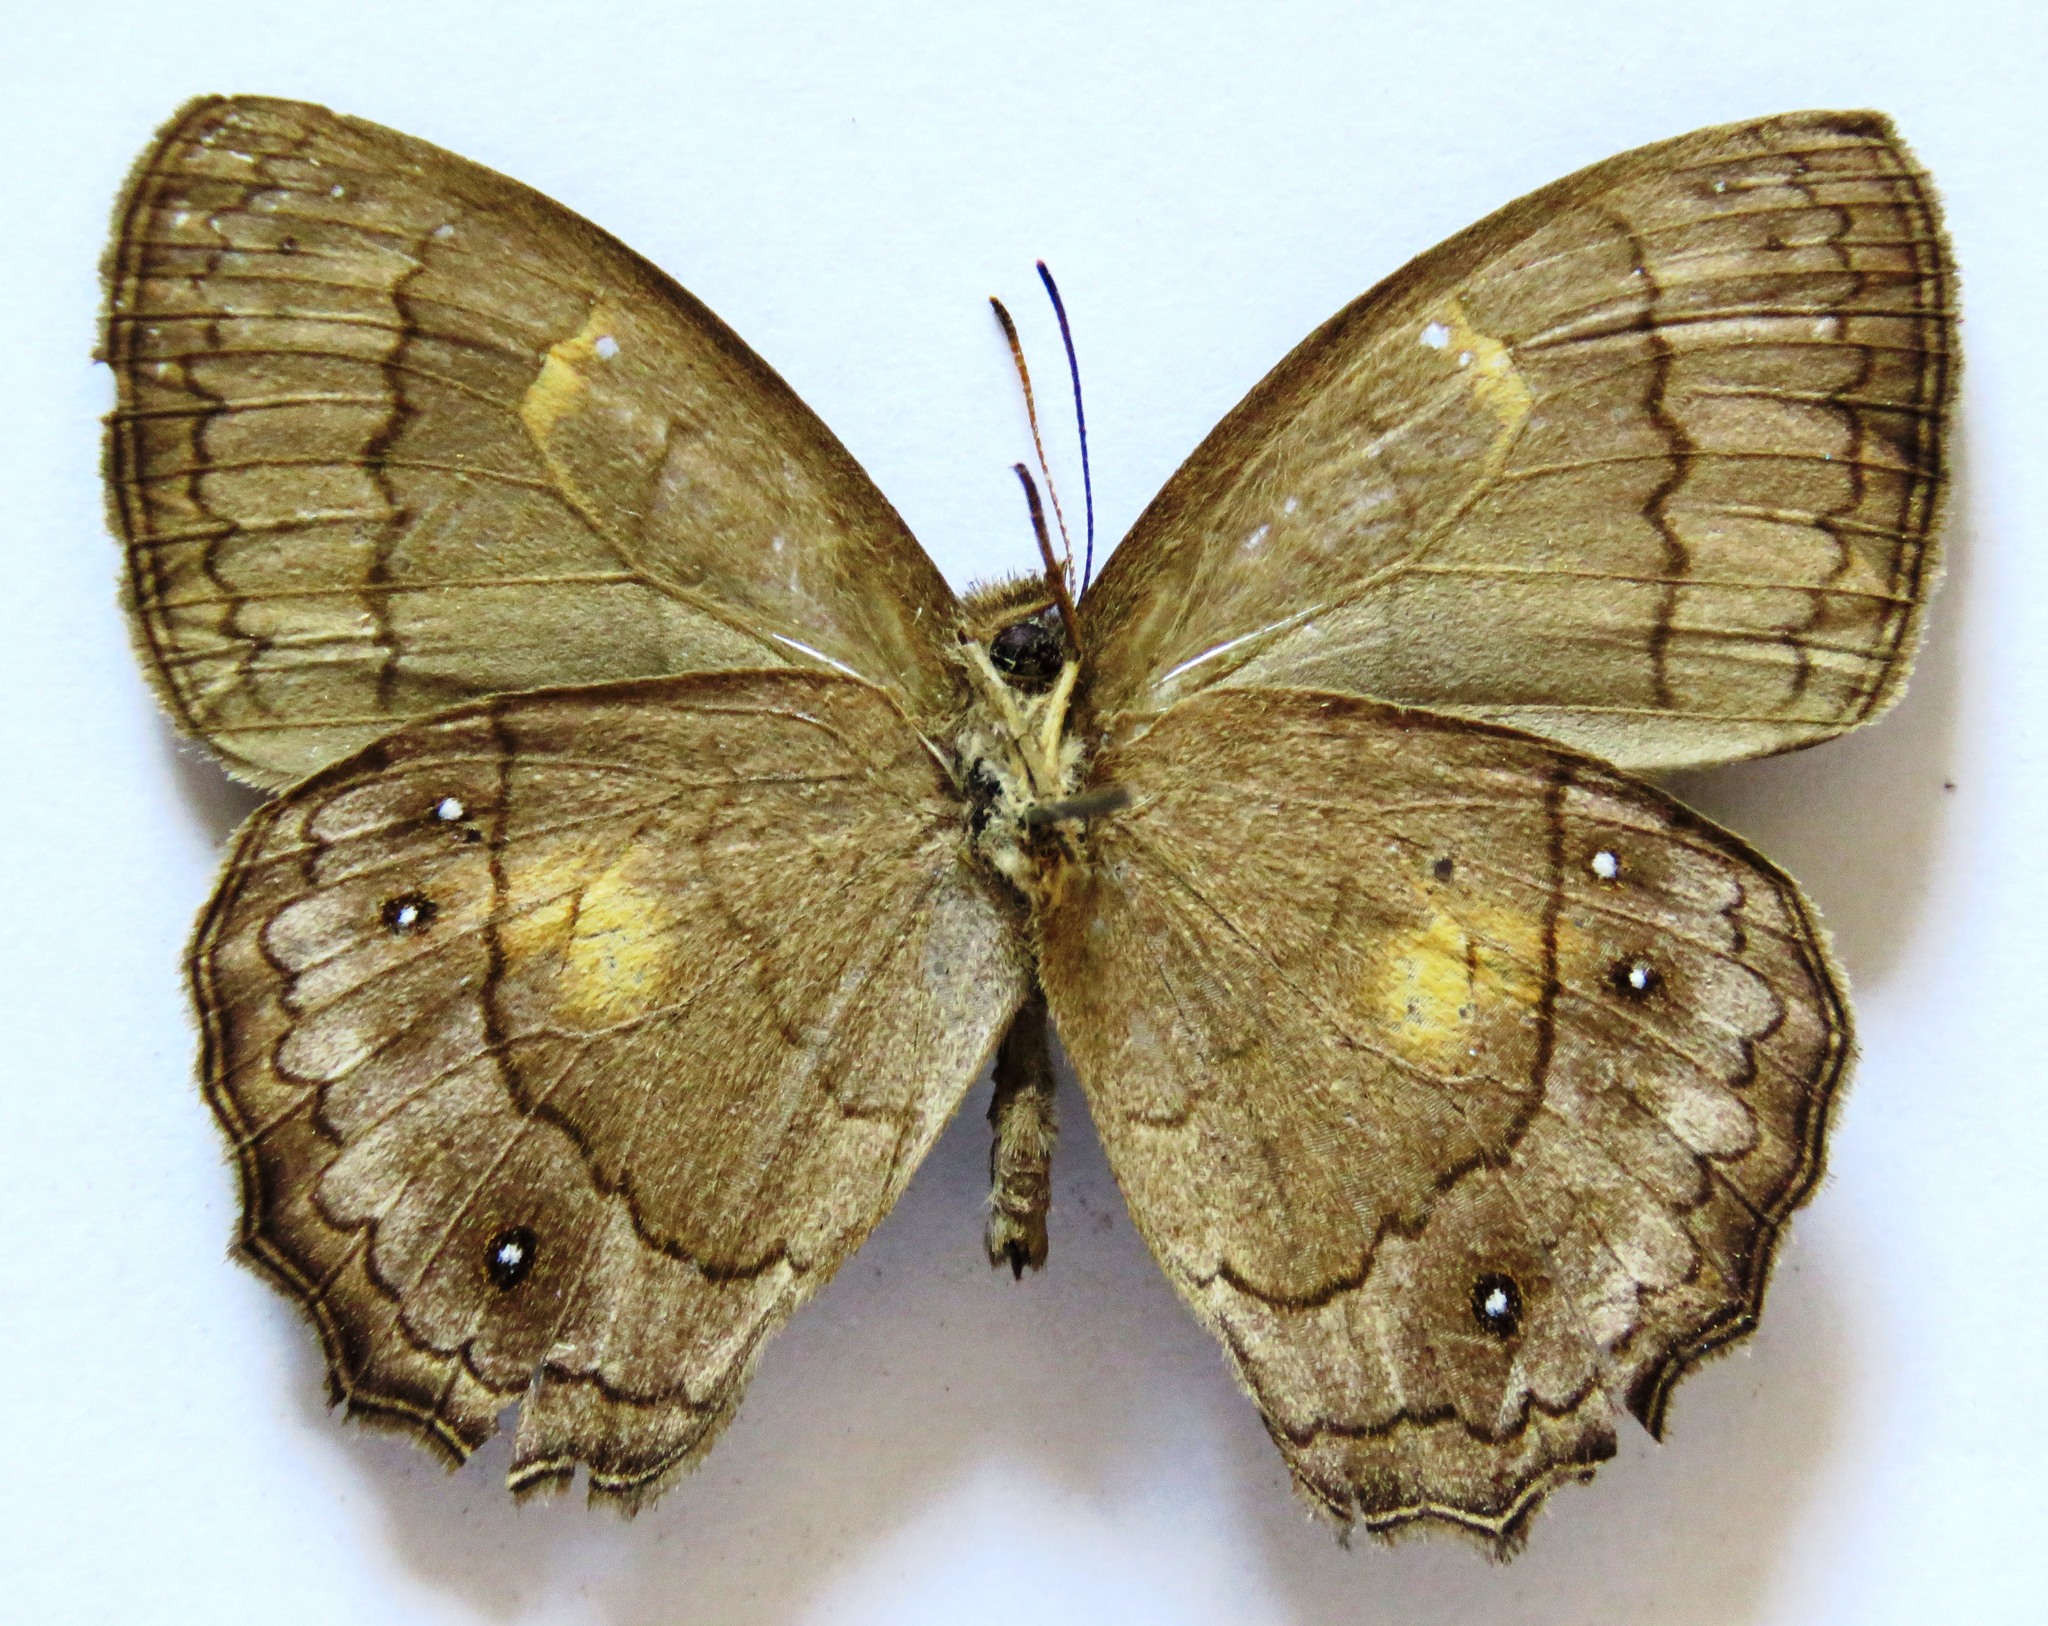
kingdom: Animalia
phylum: Arthropoda
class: Insecta
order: Lepidoptera
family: Nymphalidae
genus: Taygetina
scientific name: Taygetina kerea
